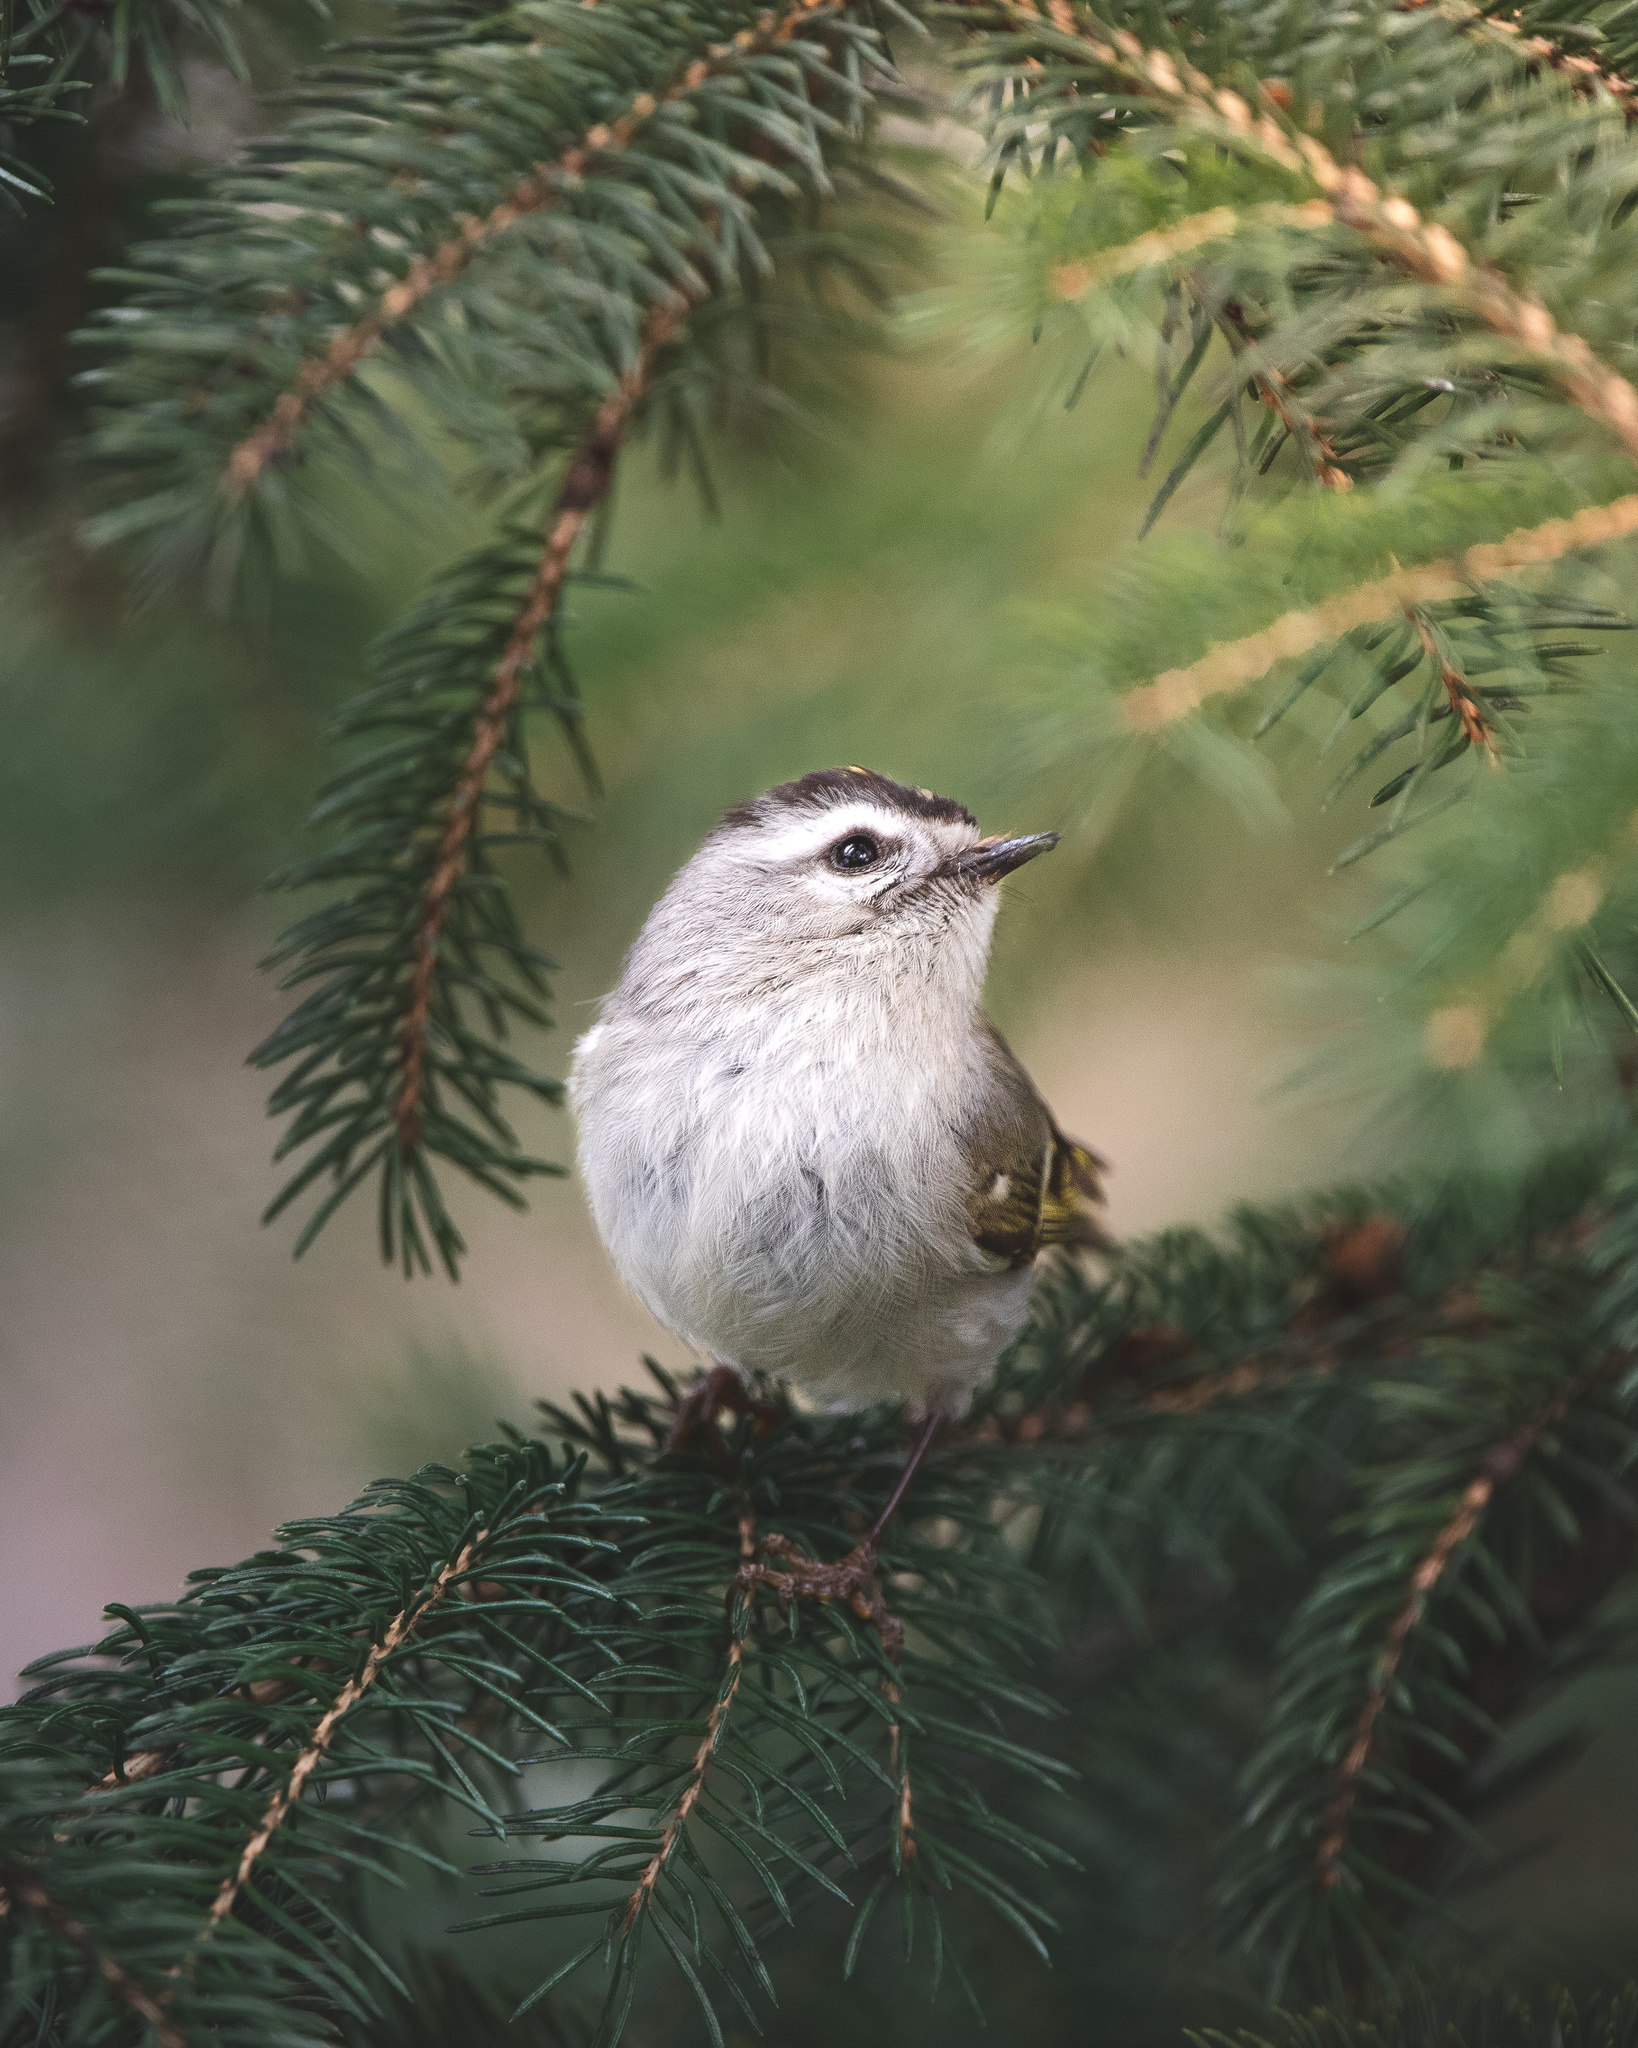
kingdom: Animalia
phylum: Chordata
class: Aves
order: Passeriformes
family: Regulidae
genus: Regulus
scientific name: Regulus satrapa
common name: Golden-crowned kinglet
